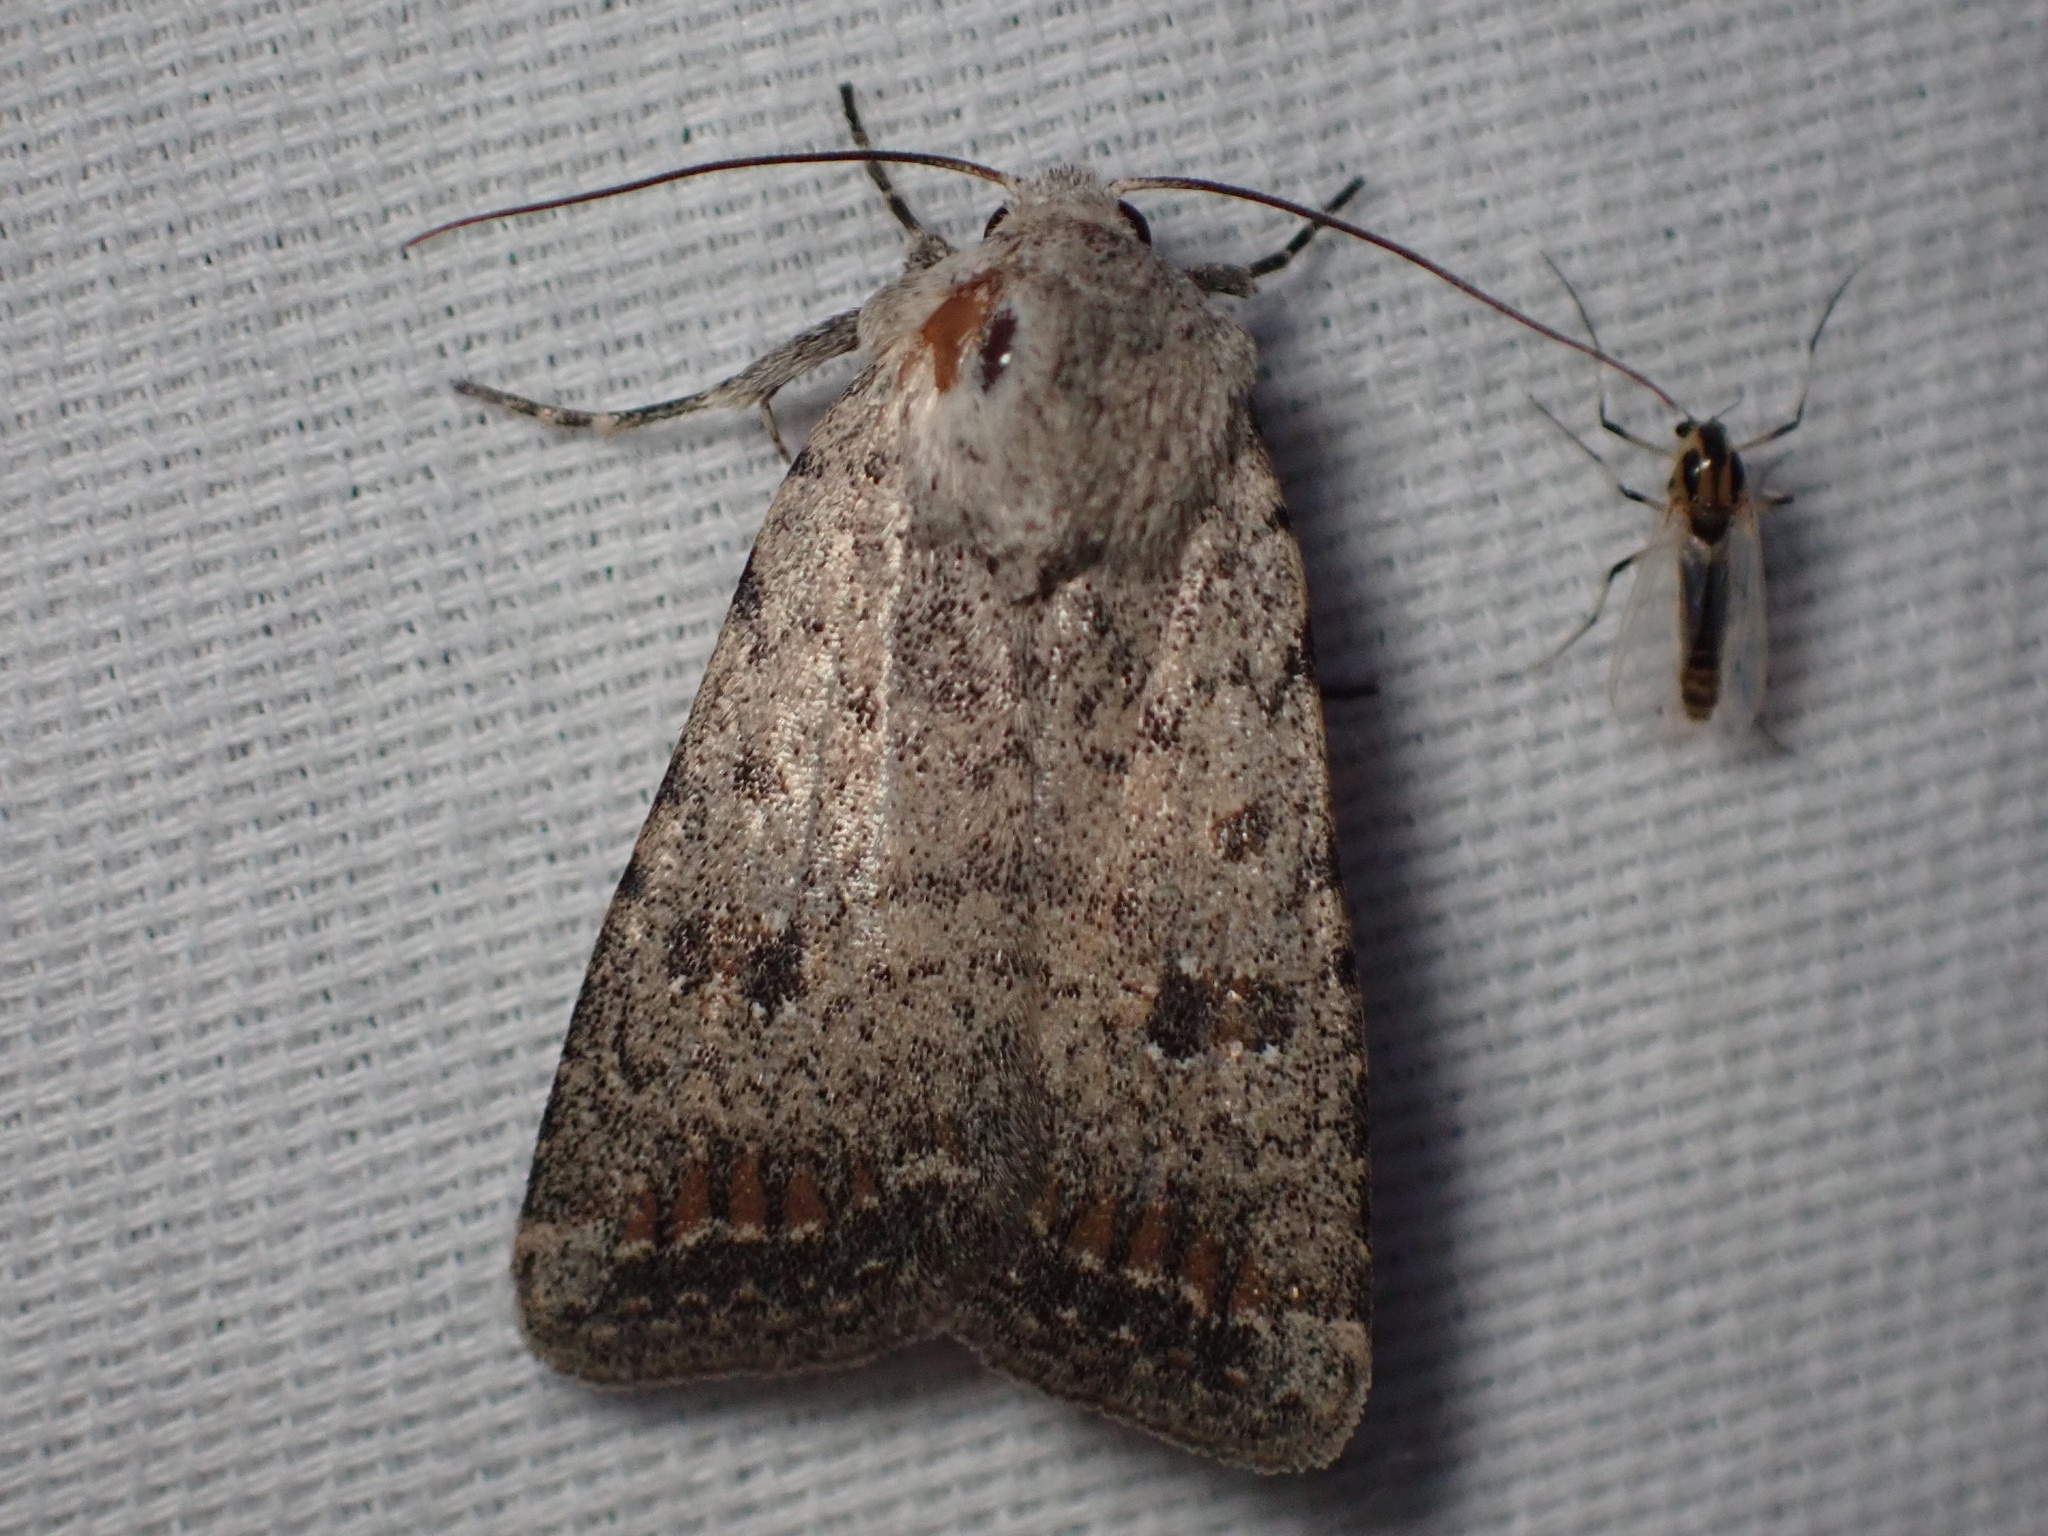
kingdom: Animalia
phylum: Arthropoda
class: Insecta
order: Lepidoptera
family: Noctuidae
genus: Caradrina
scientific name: Caradrina montana
